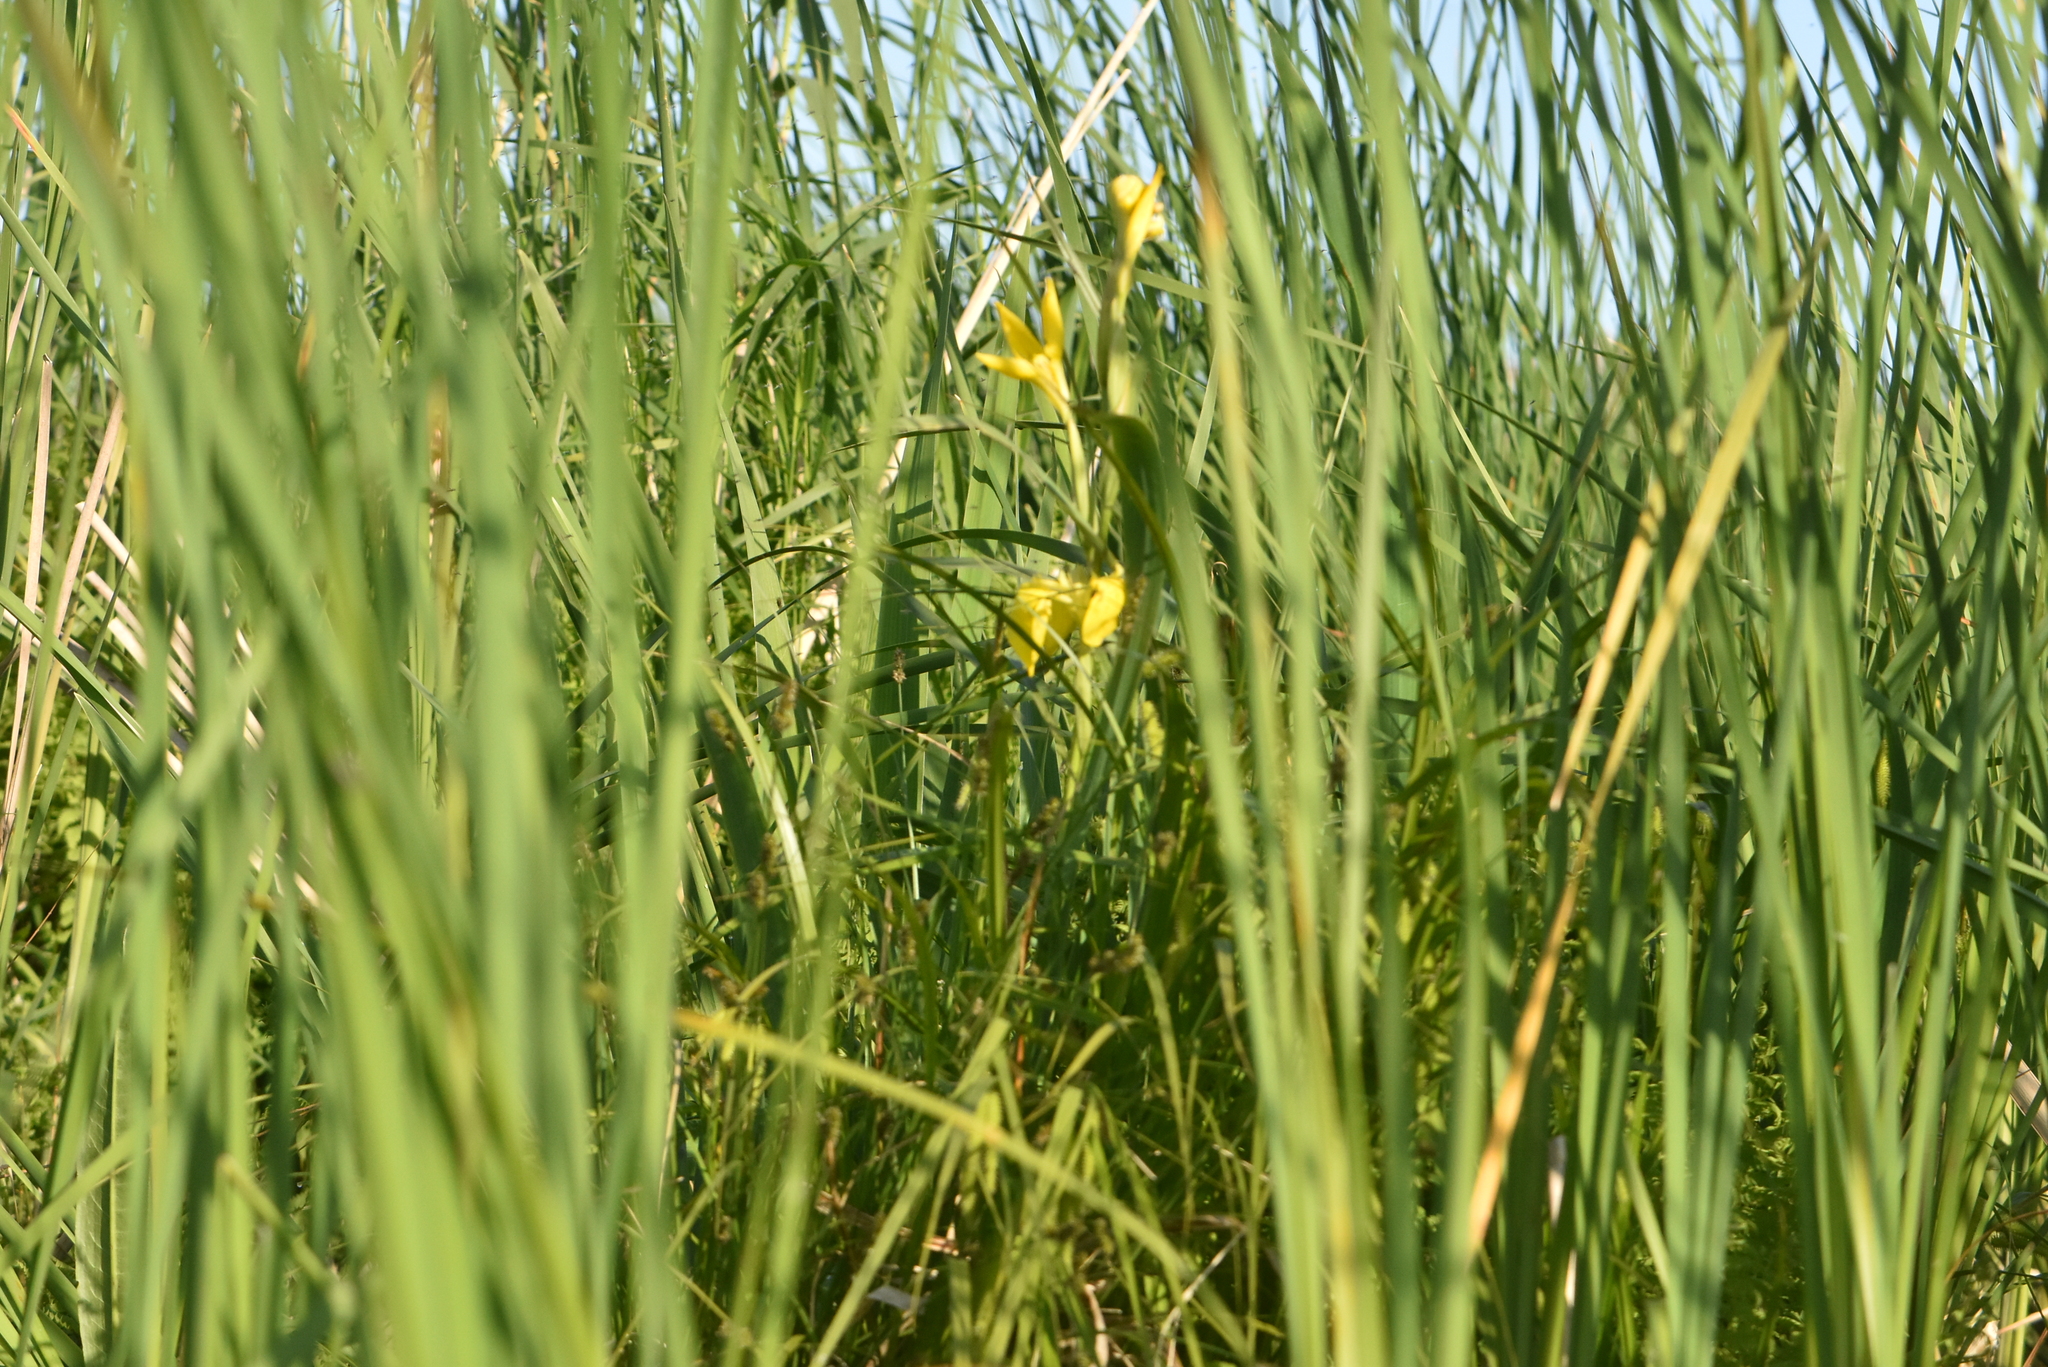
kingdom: Plantae
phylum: Tracheophyta
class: Liliopsida
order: Asparagales
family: Iridaceae
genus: Iris
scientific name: Iris pseudacorus
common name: Yellow flag
